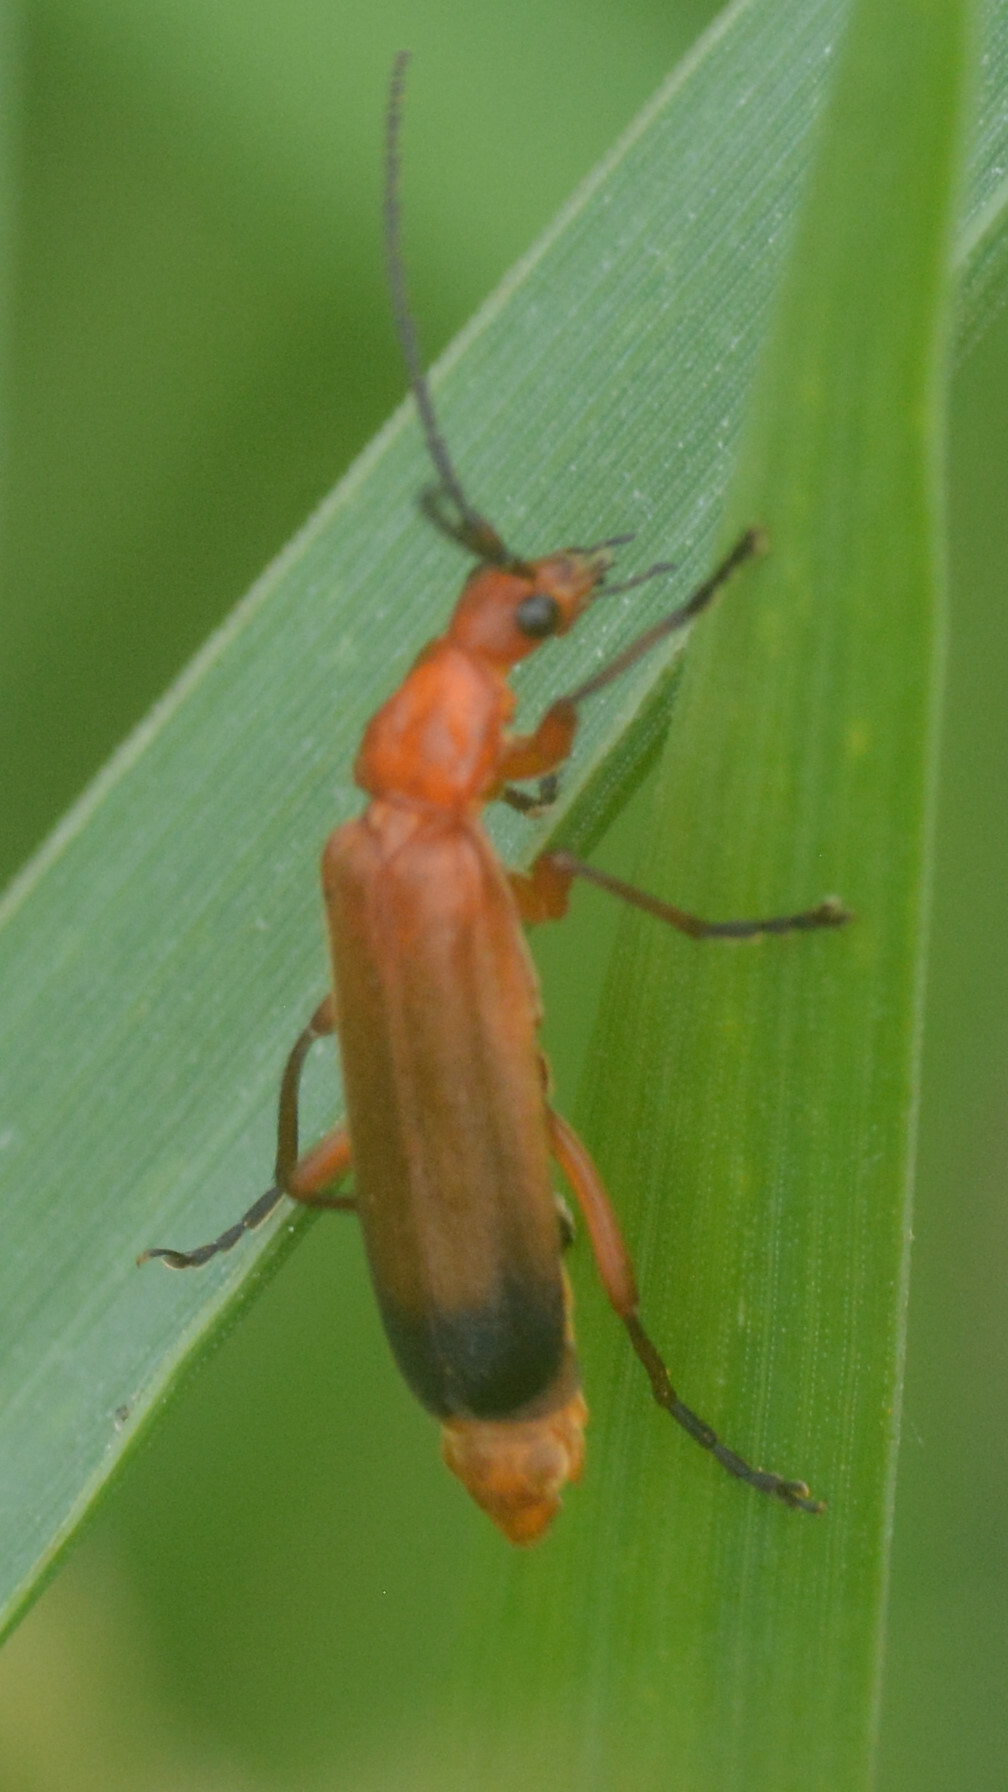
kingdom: Animalia
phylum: Arthropoda
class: Insecta
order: Coleoptera
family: Cantharidae
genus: Rhagonycha
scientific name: Rhagonycha fulva
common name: Common red soldier beetle
